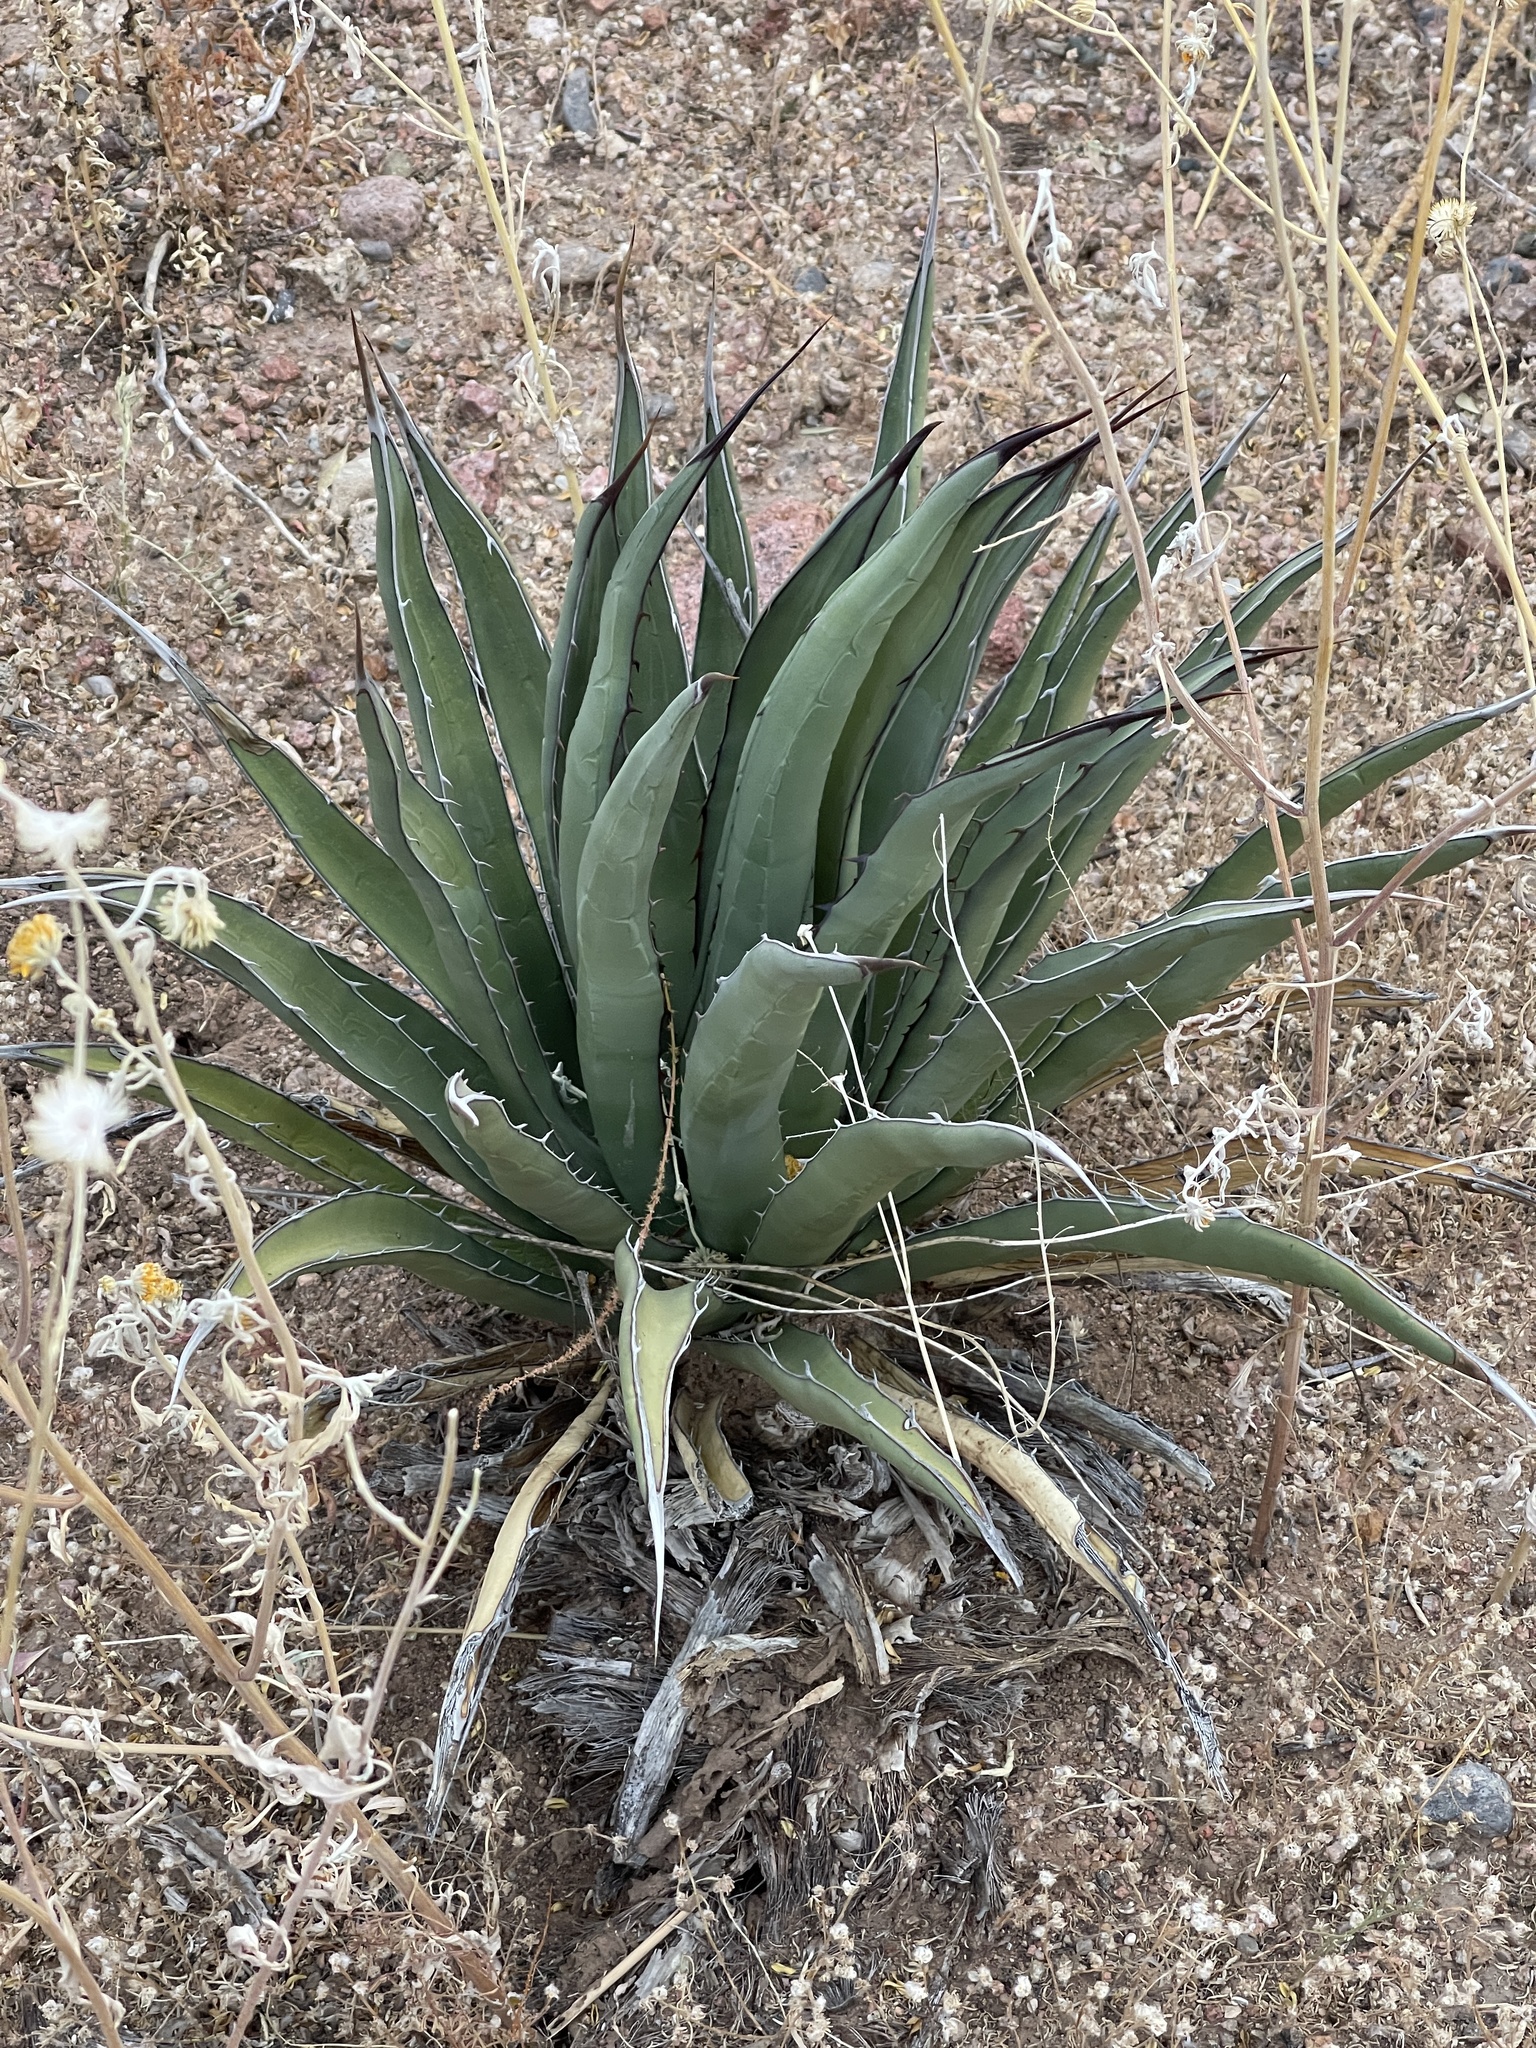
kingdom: Plantae
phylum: Tracheophyta
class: Liliopsida
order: Asparagales
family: Asparagaceae
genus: Agave
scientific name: Agave lechuguilla
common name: Lecheguilla agave
